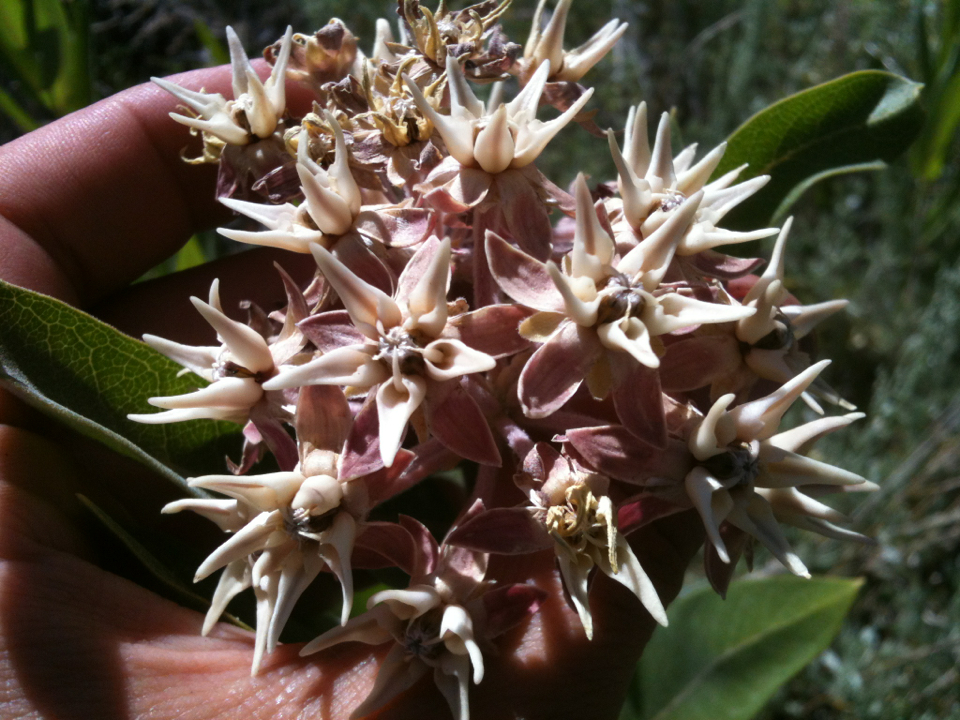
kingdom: Plantae
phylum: Tracheophyta
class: Magnoliopsida
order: Gentianales
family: Apocynaceae
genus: Asclepias
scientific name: Asclepias speciosa
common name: Showy milkweed
